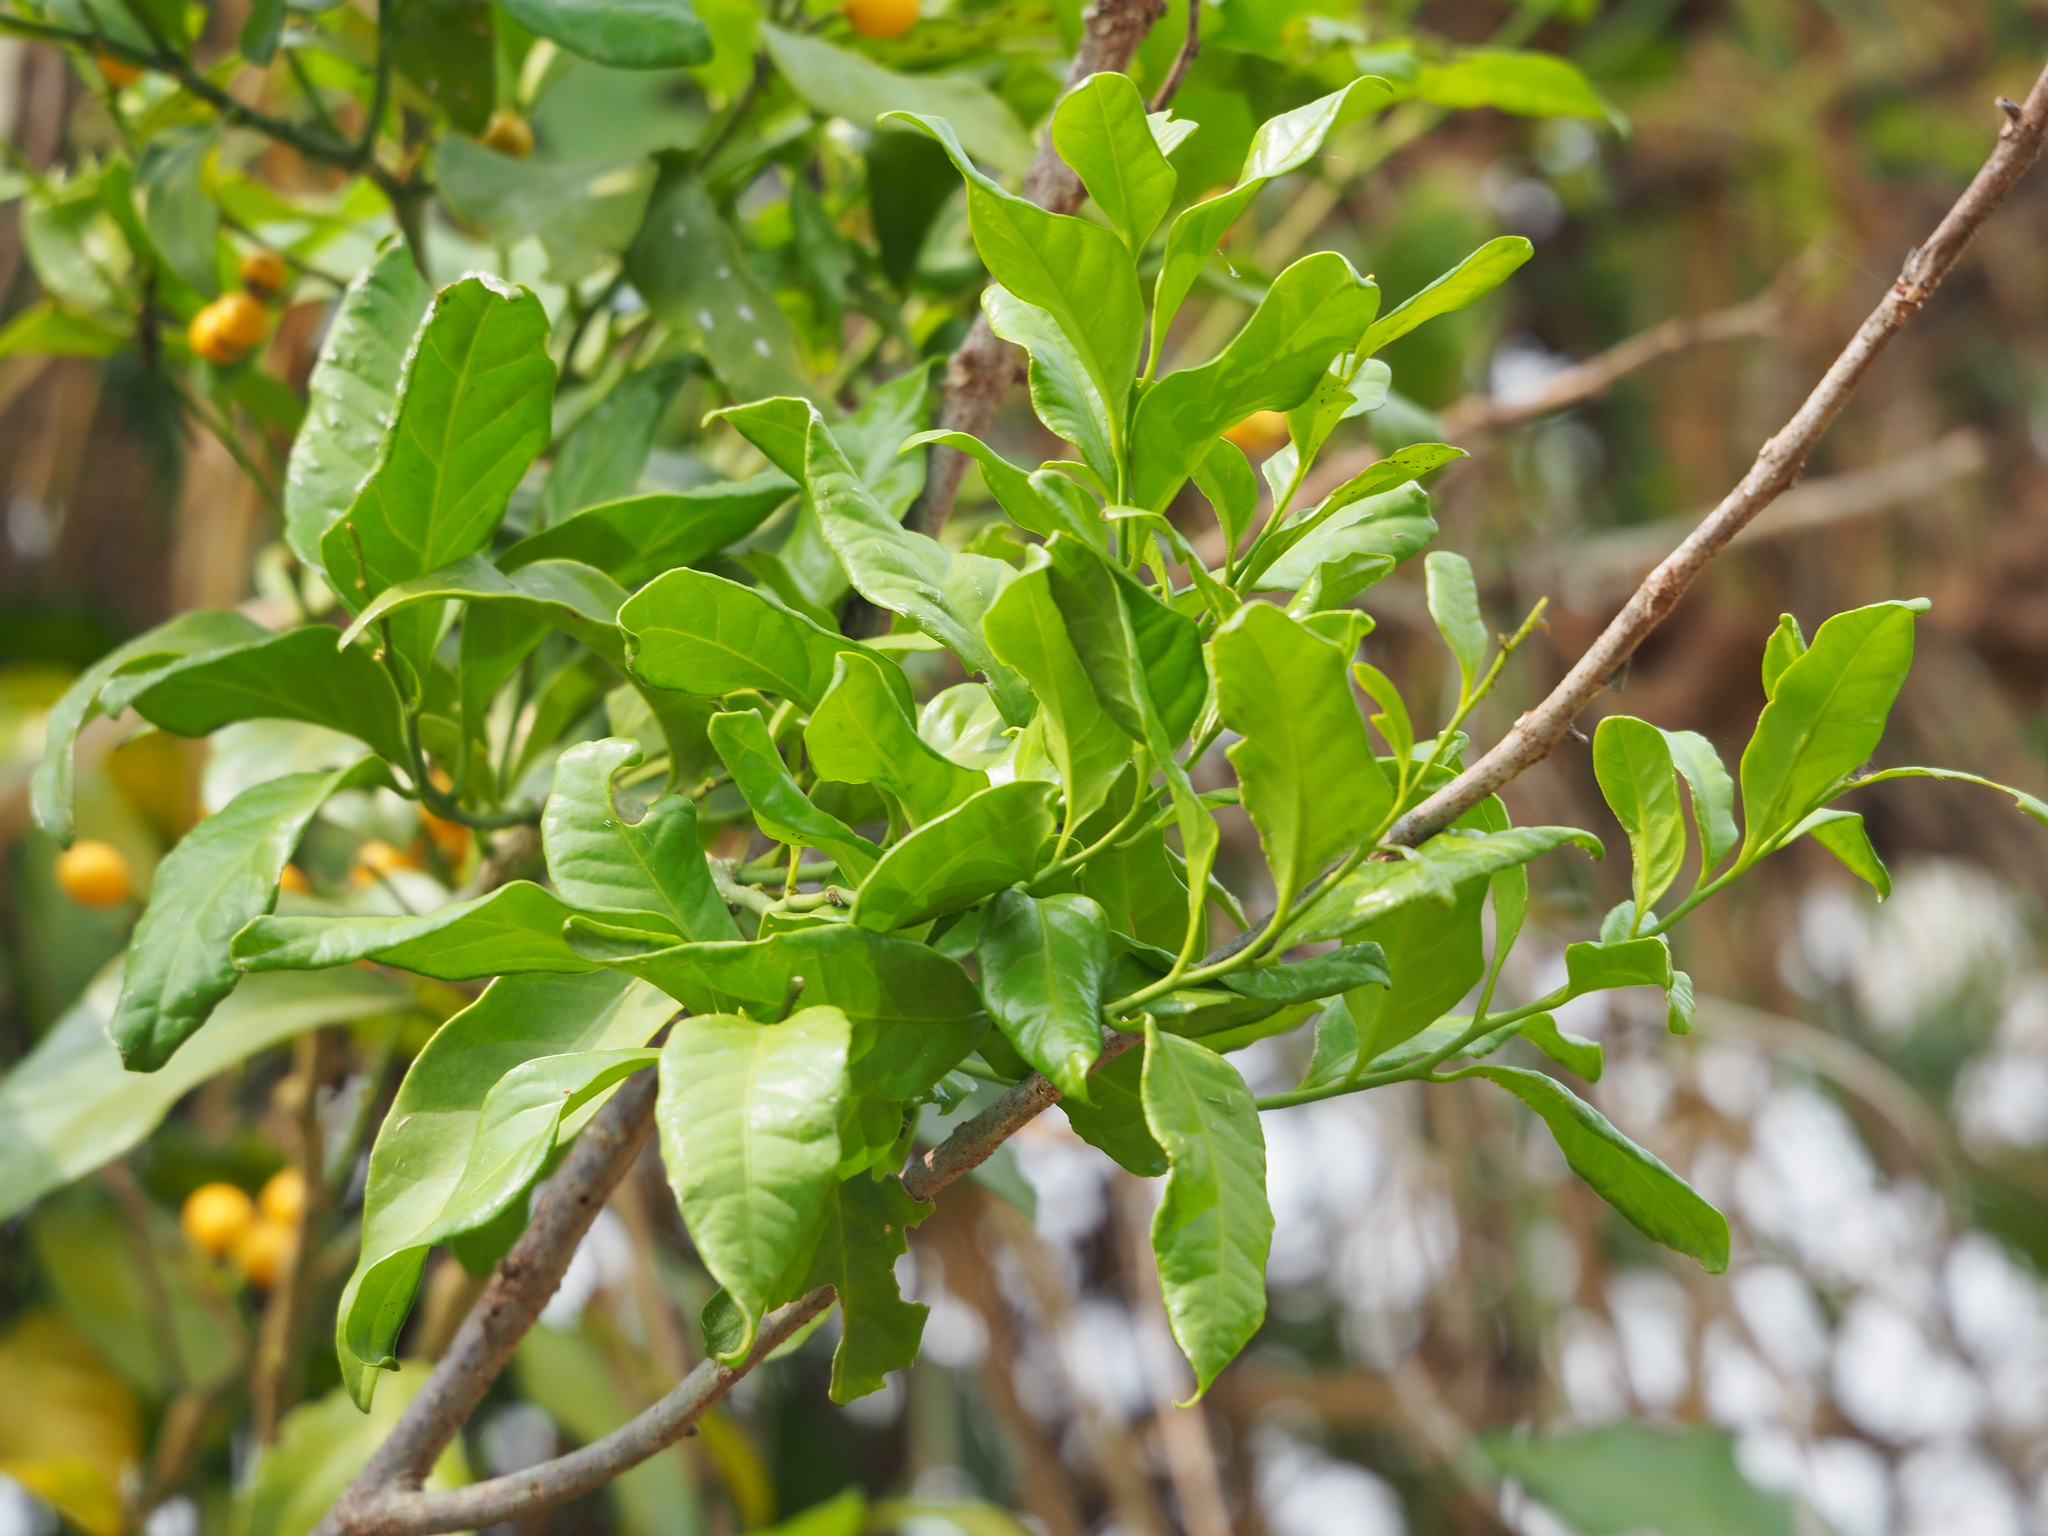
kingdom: Plantae
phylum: Tracheophyta
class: Magnoliopsida
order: Santalales
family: Opiliaceae
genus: Champereia
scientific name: Champereia manillana
